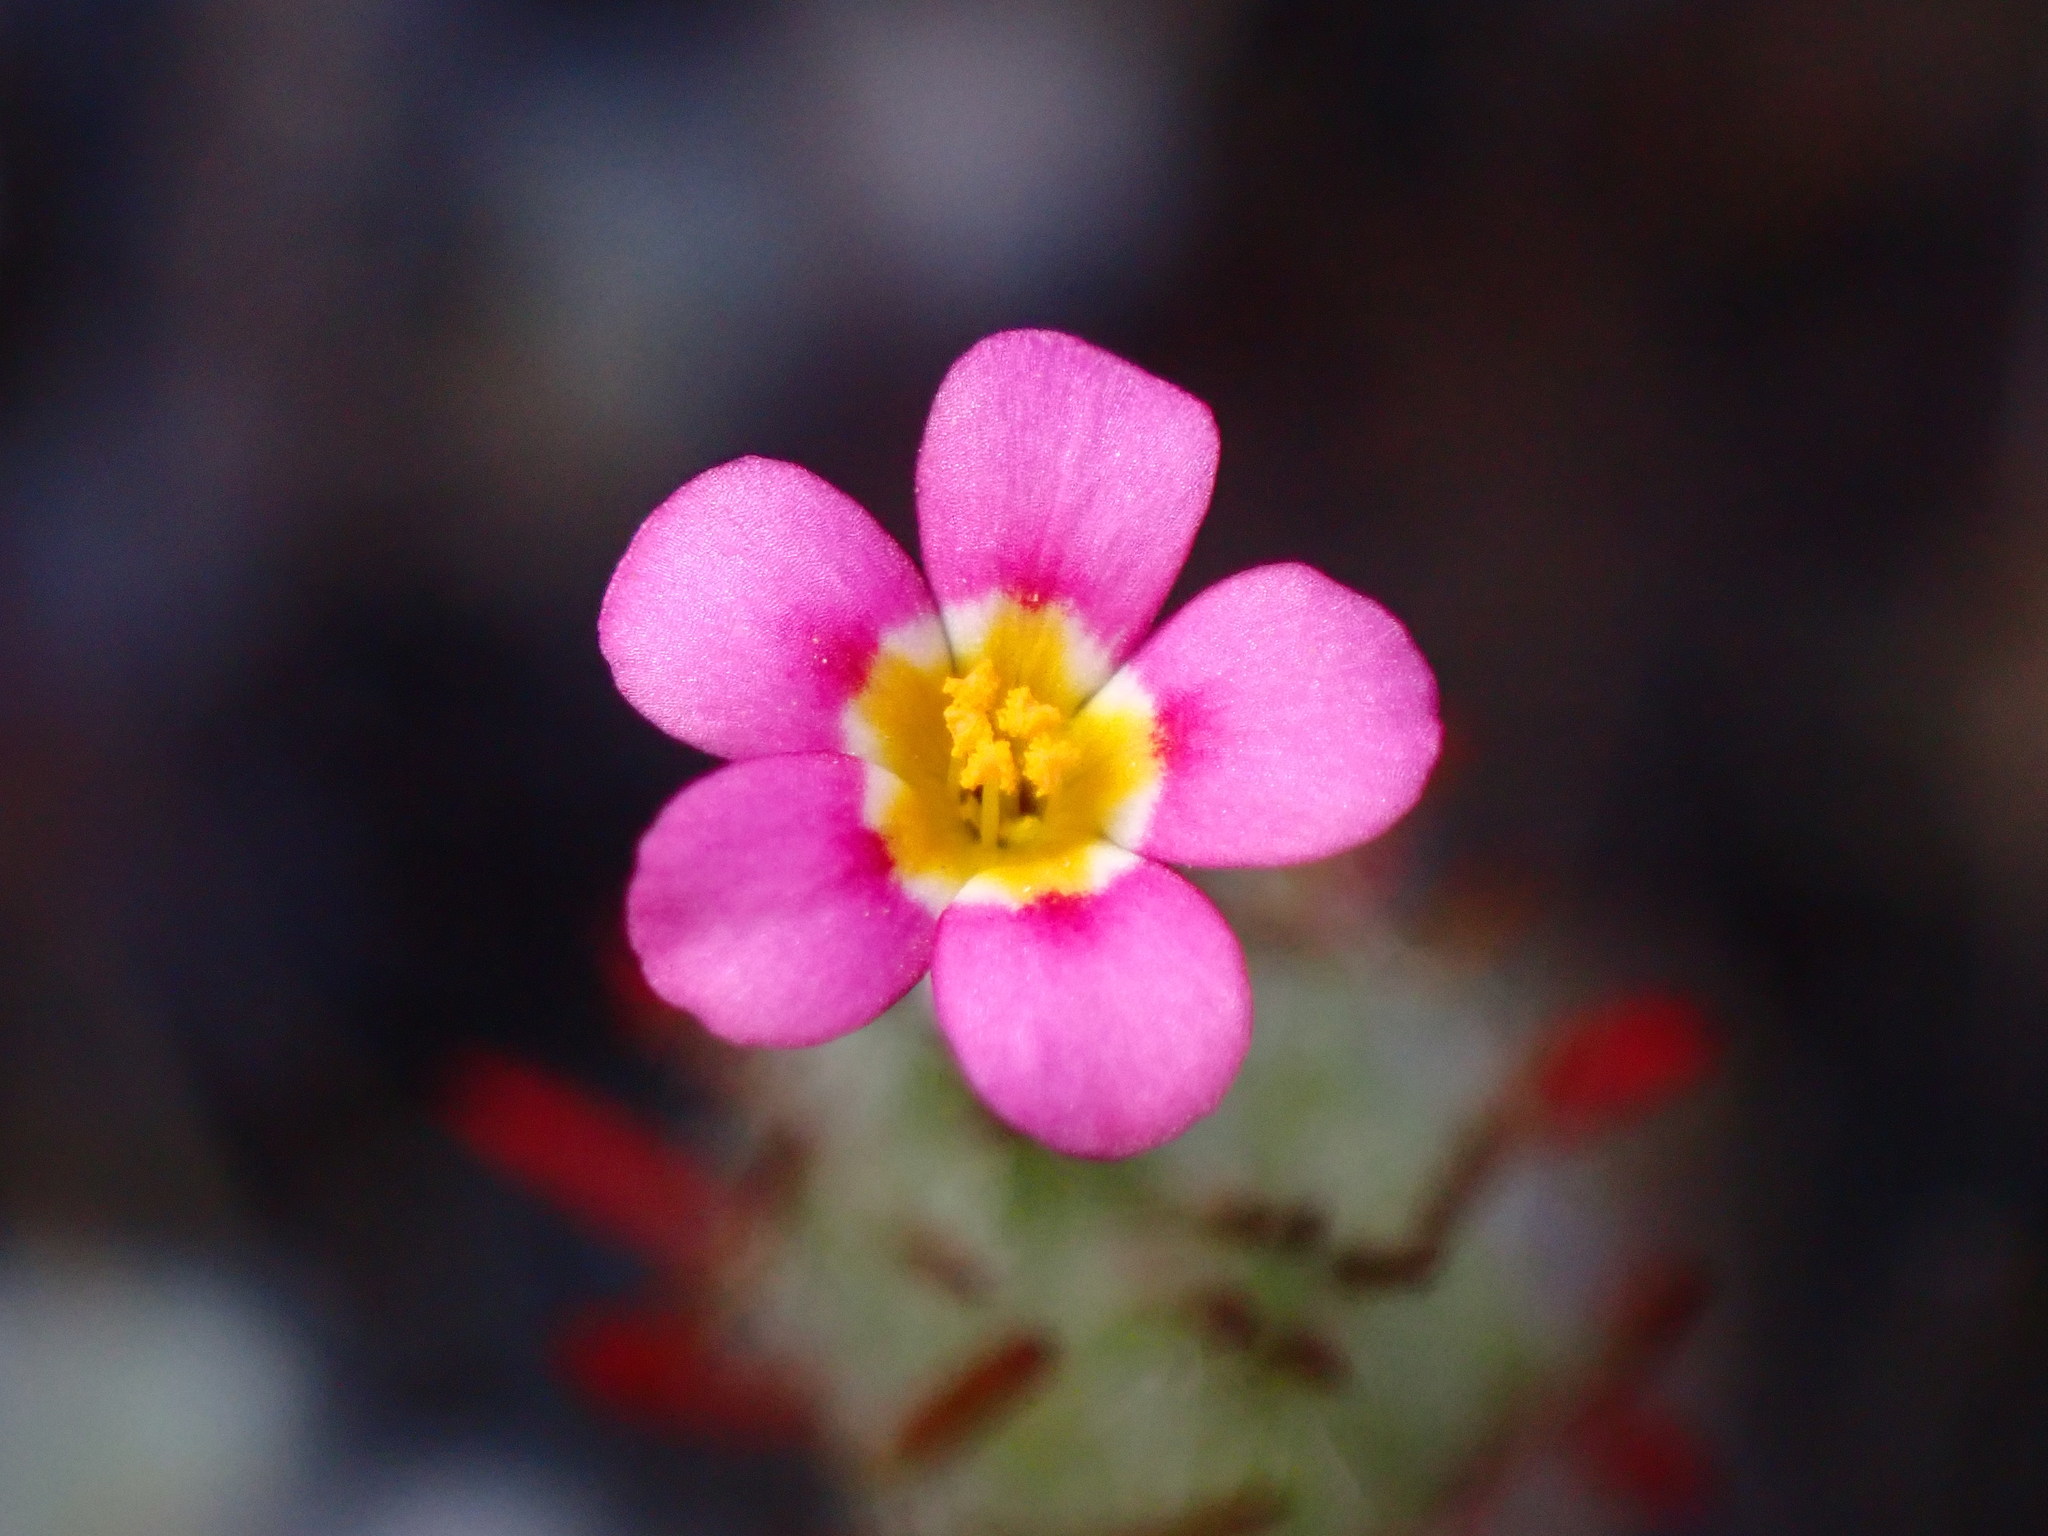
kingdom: Plantae
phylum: Tracheophyta
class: Magnoliopsida
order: Ericales
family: Polemoniaceae
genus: Leptosiphon
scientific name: Leptosiphon ciliatus
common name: Whiskerbrush
